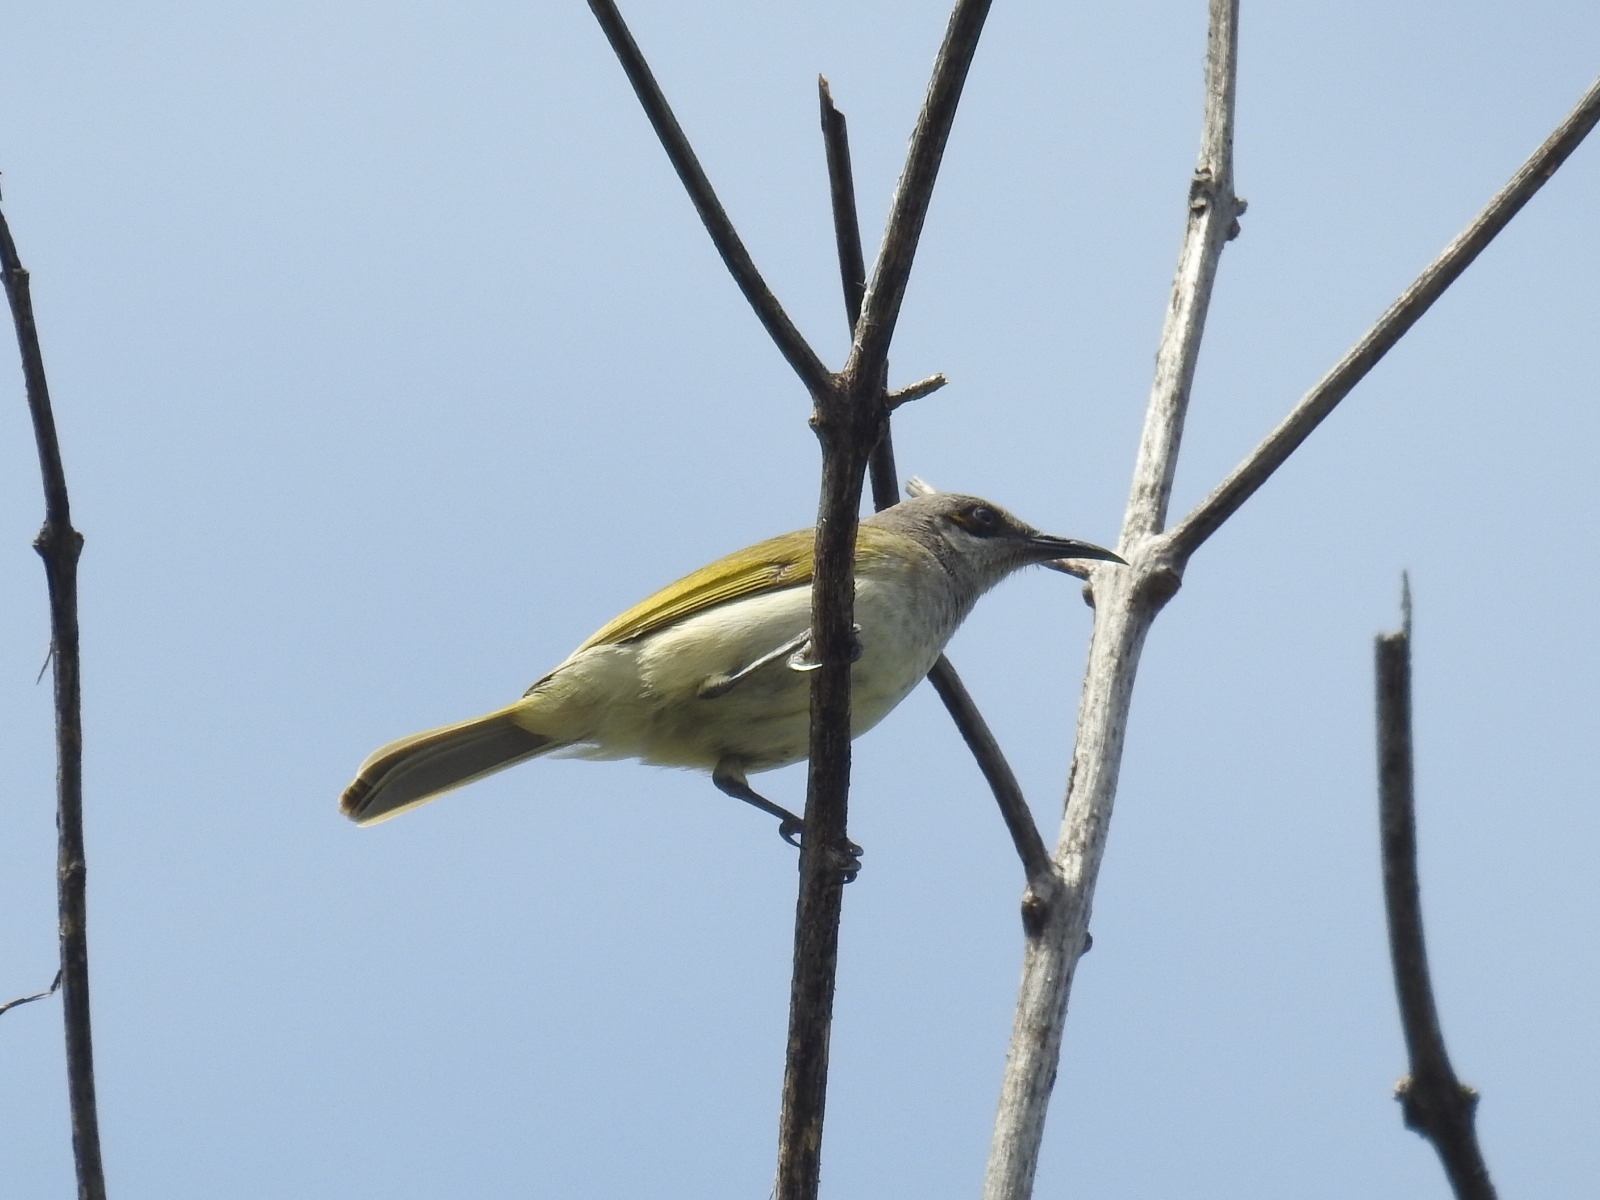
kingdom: Animalia
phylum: Chordata
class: Aves
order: Passeriformes
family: Meliphagidae
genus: Lichmera
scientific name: Lichmera indistincta
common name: Brown honeyeater
